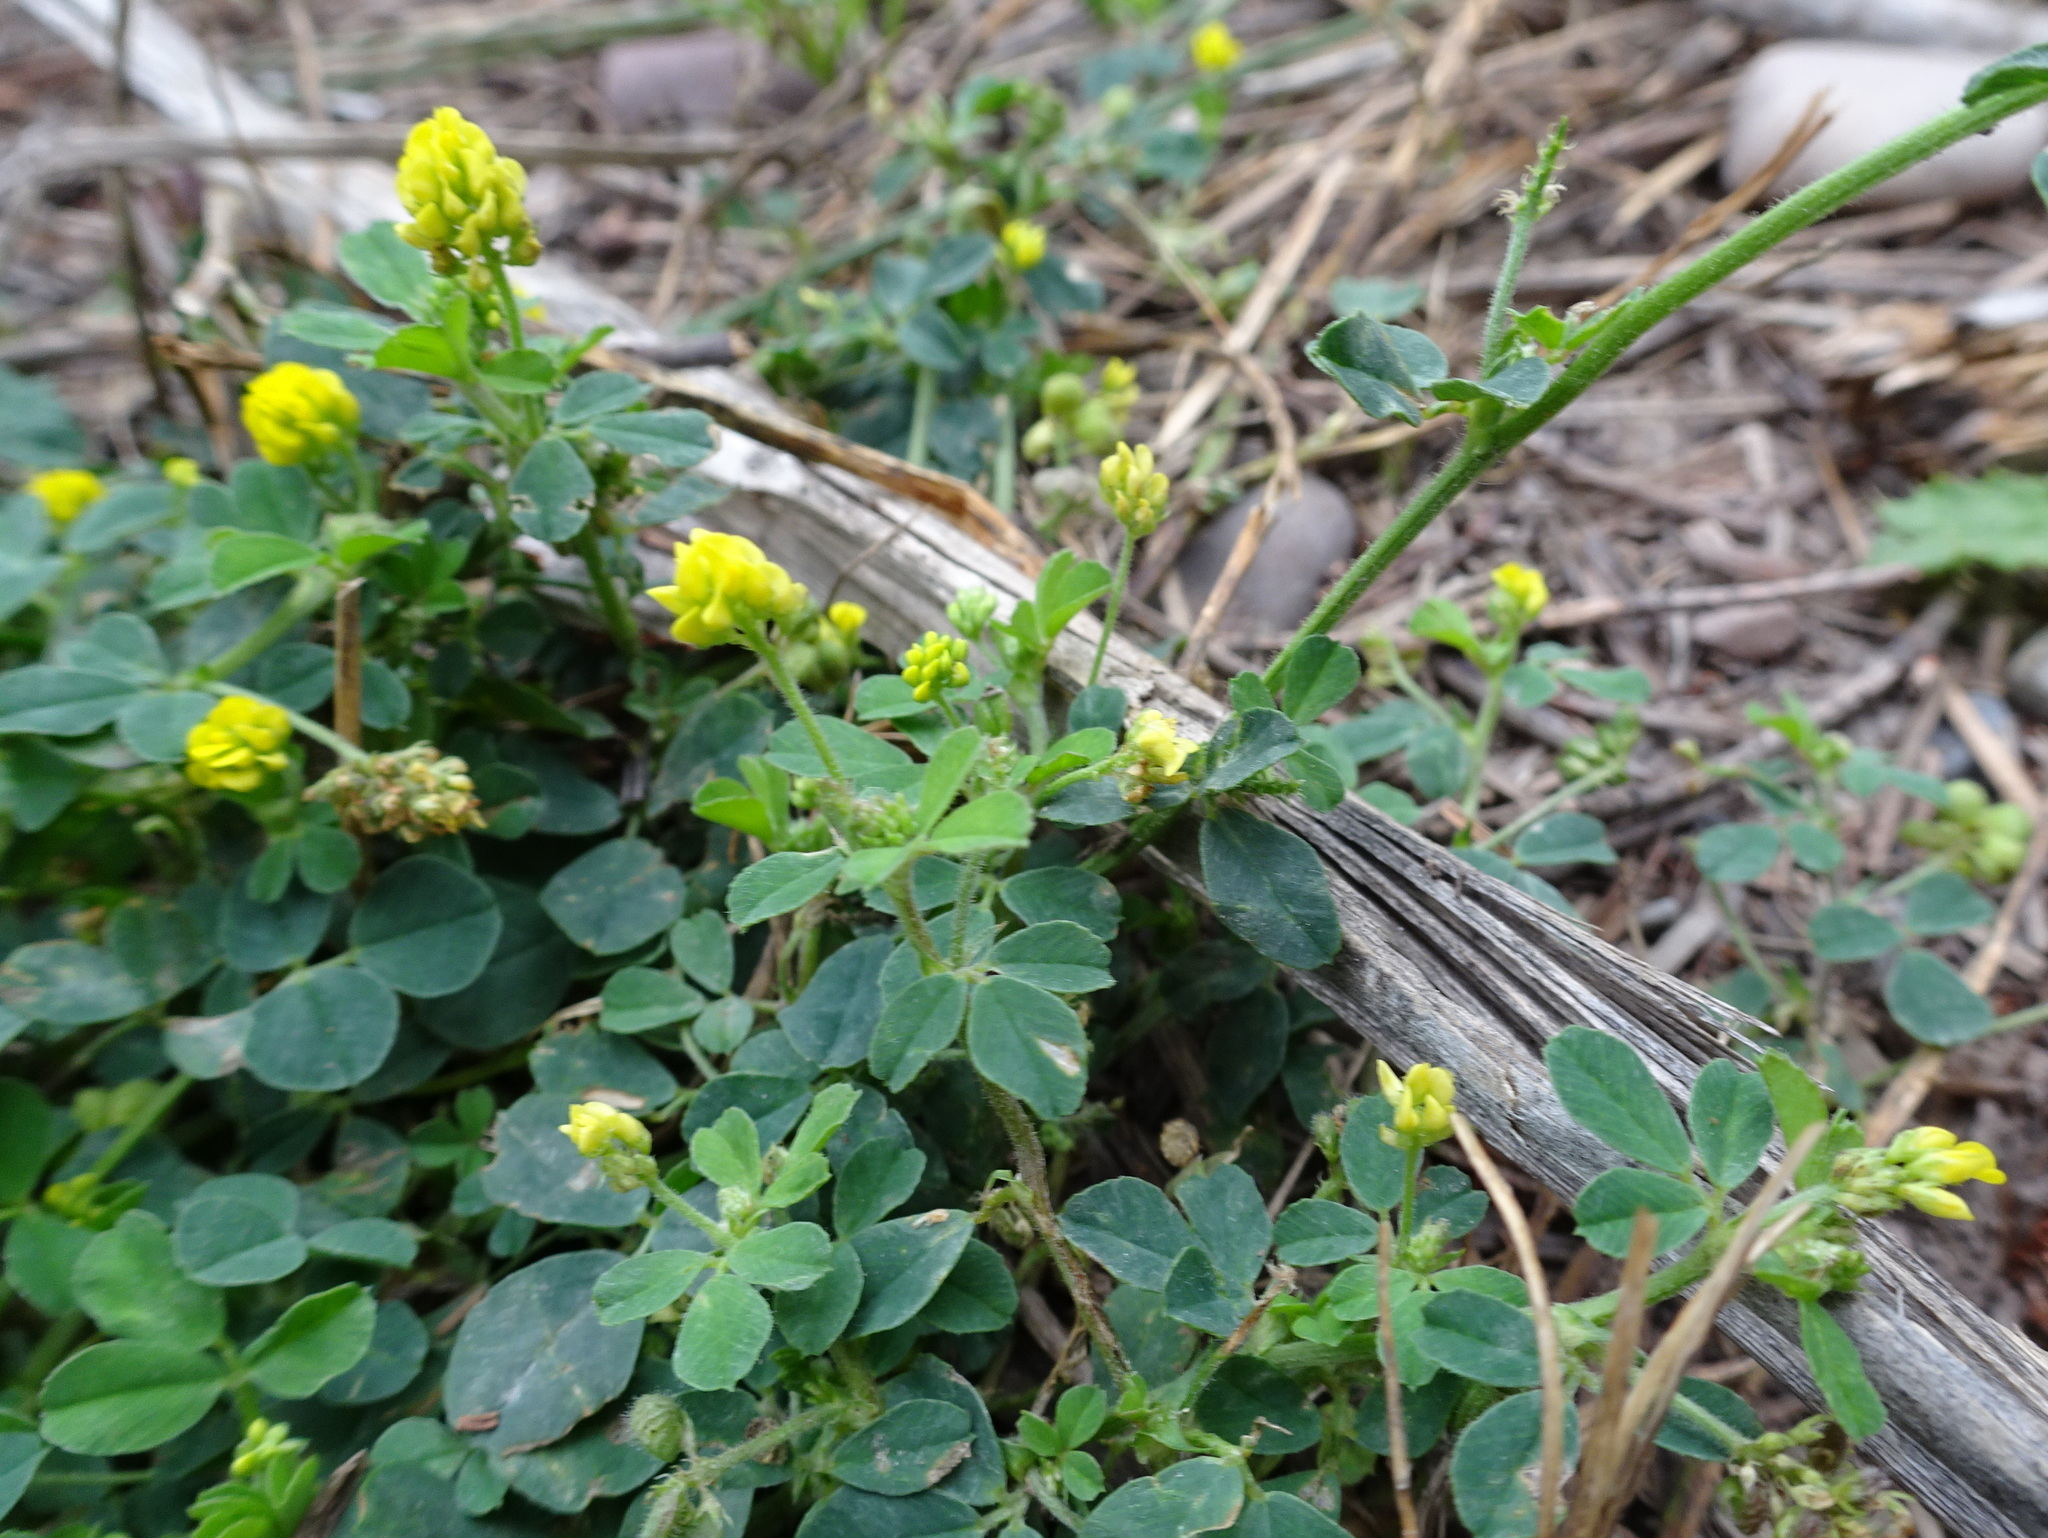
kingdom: Plantae
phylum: Tracheophyta
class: Magnoliopsida
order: Fabales
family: Fabaceae
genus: Medicago
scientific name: Medicago lupulina
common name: Black medick
